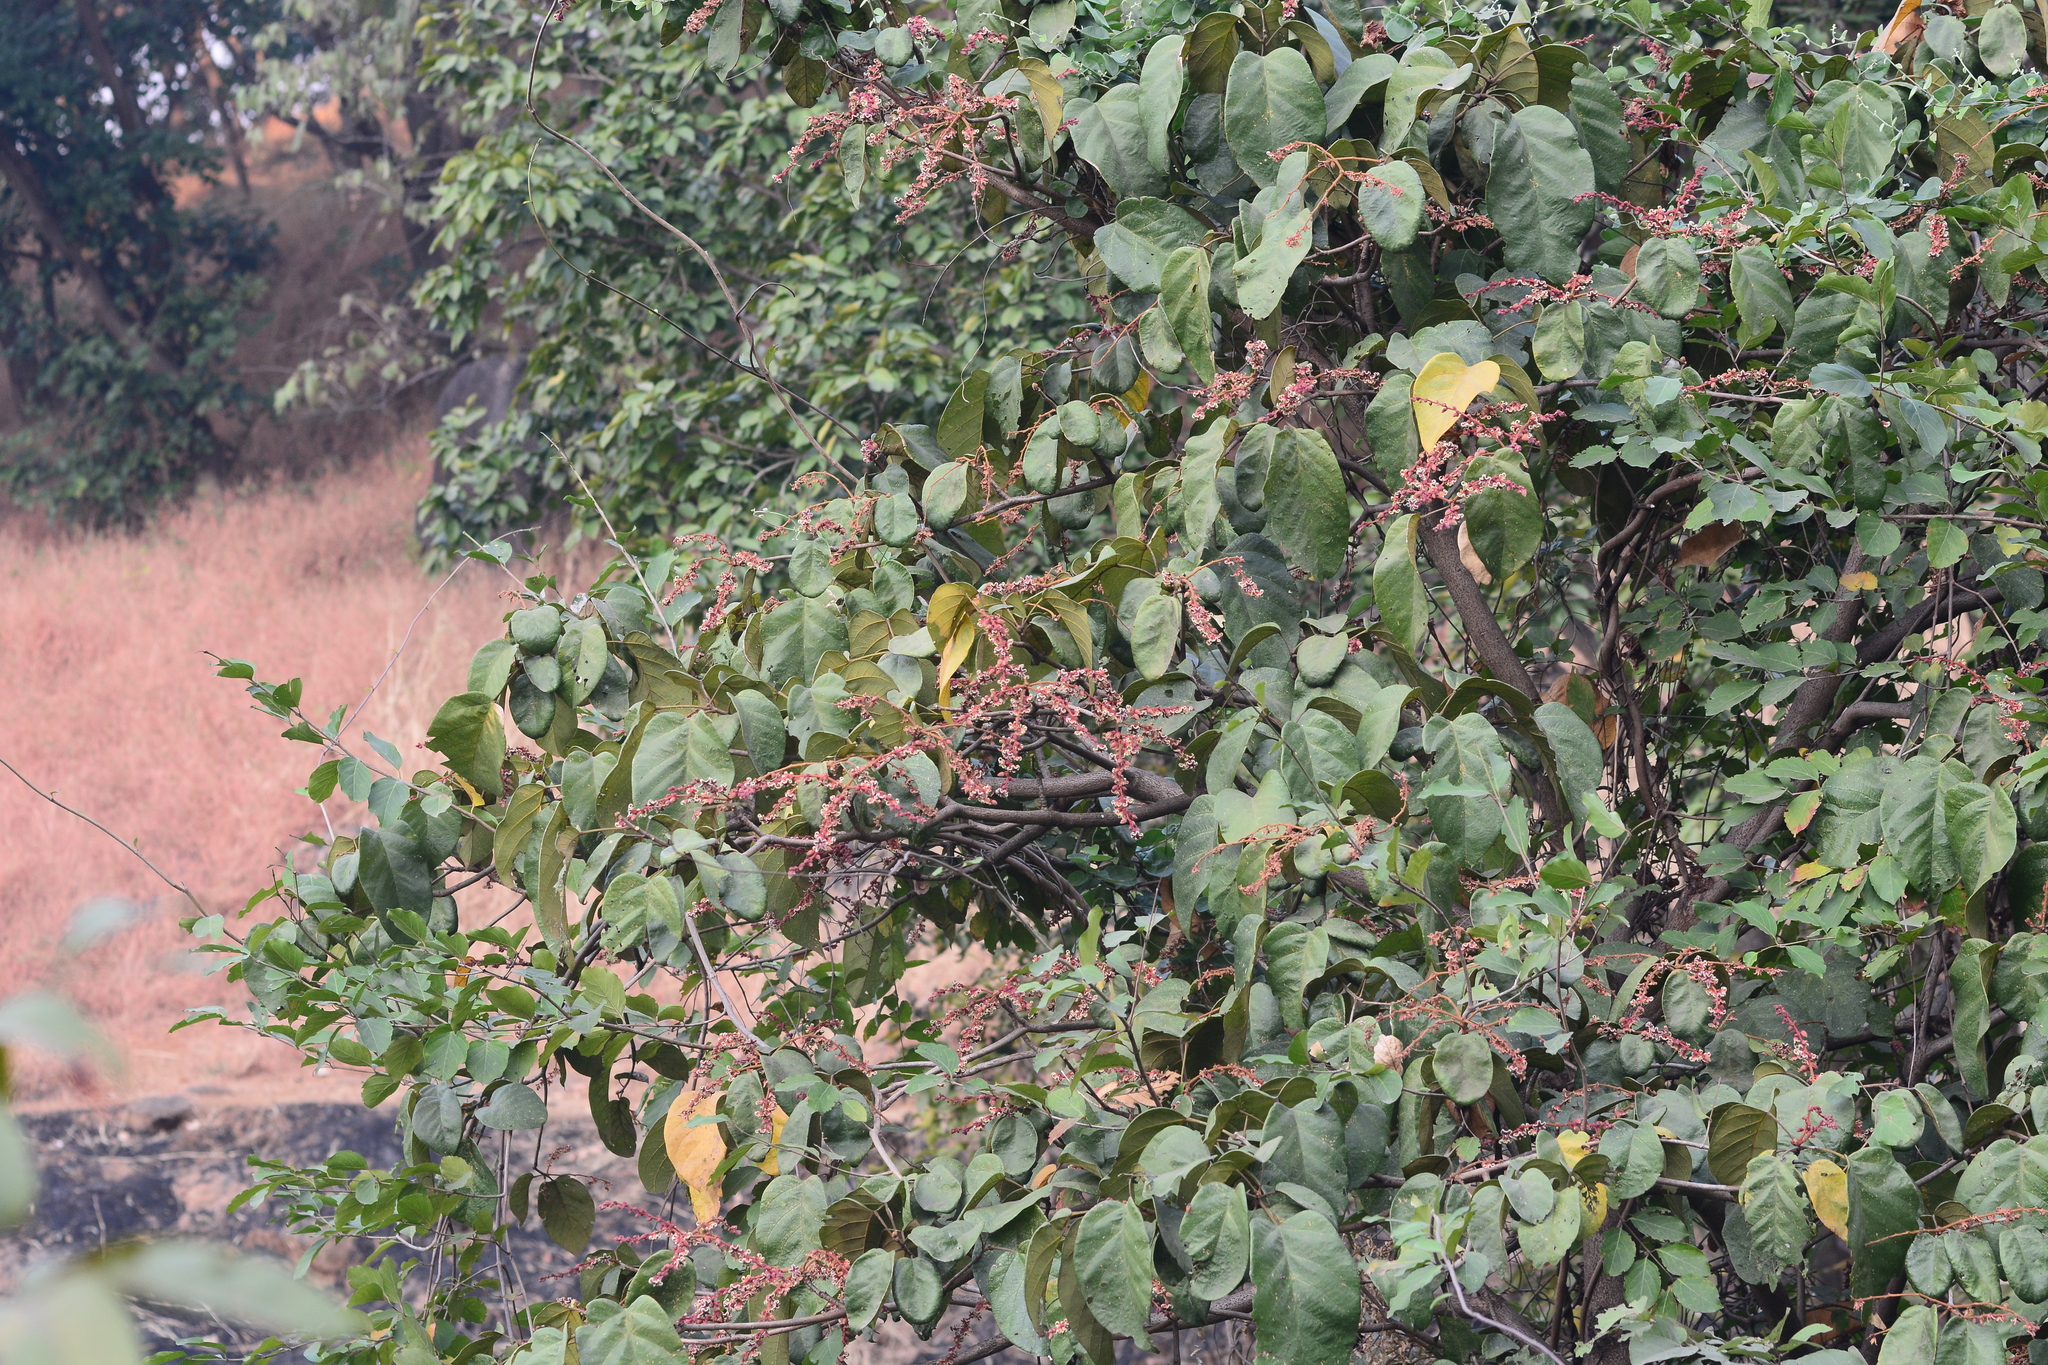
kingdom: Plantae
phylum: Tracheophyta
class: Magnoliopsida
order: Malvales
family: Malvaceae
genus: Sterculia
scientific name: Sterculia guttata
